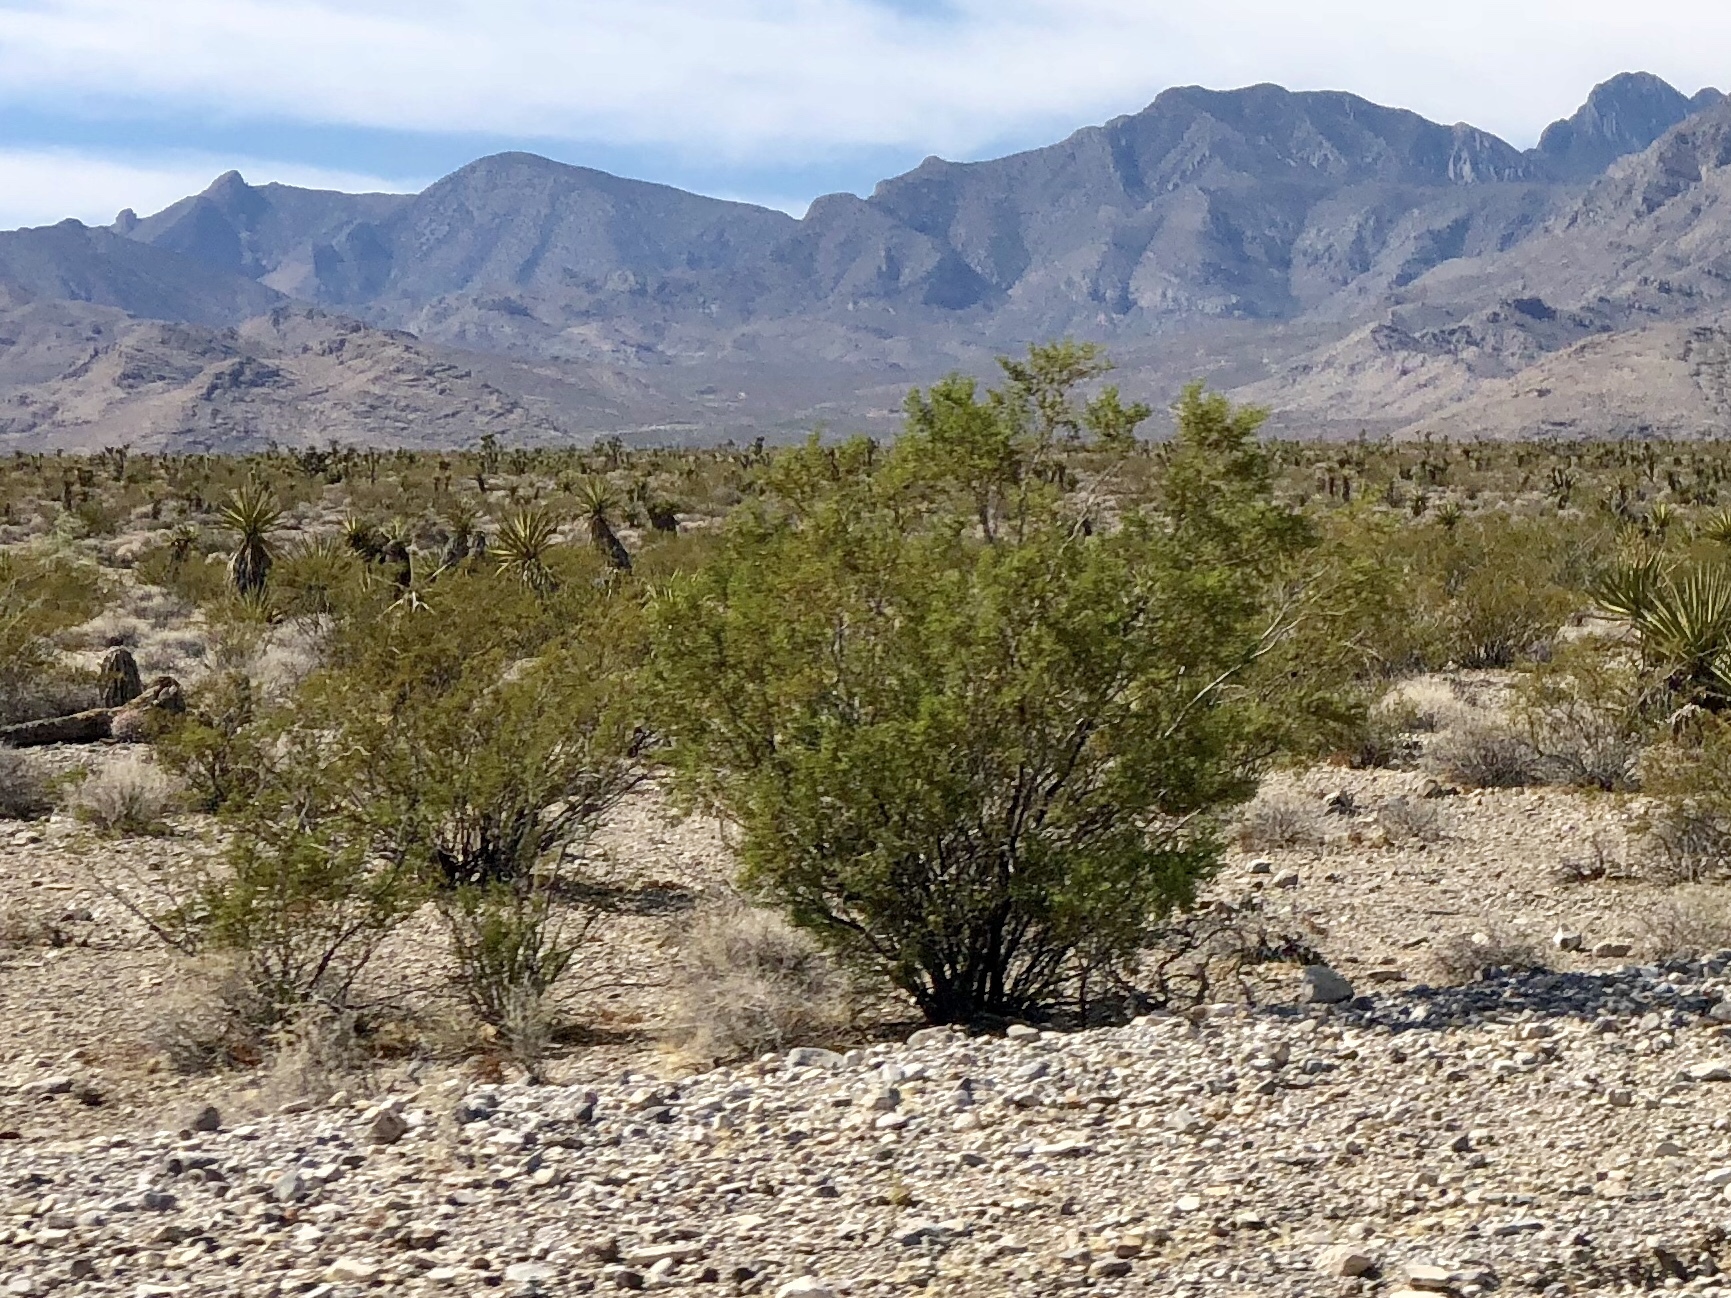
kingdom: Plantae
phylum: Tracheophyta
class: Magnoliopsida
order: Zygophyllales
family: Zygophyllaceae
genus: Larrea
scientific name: Larrea tridentata
